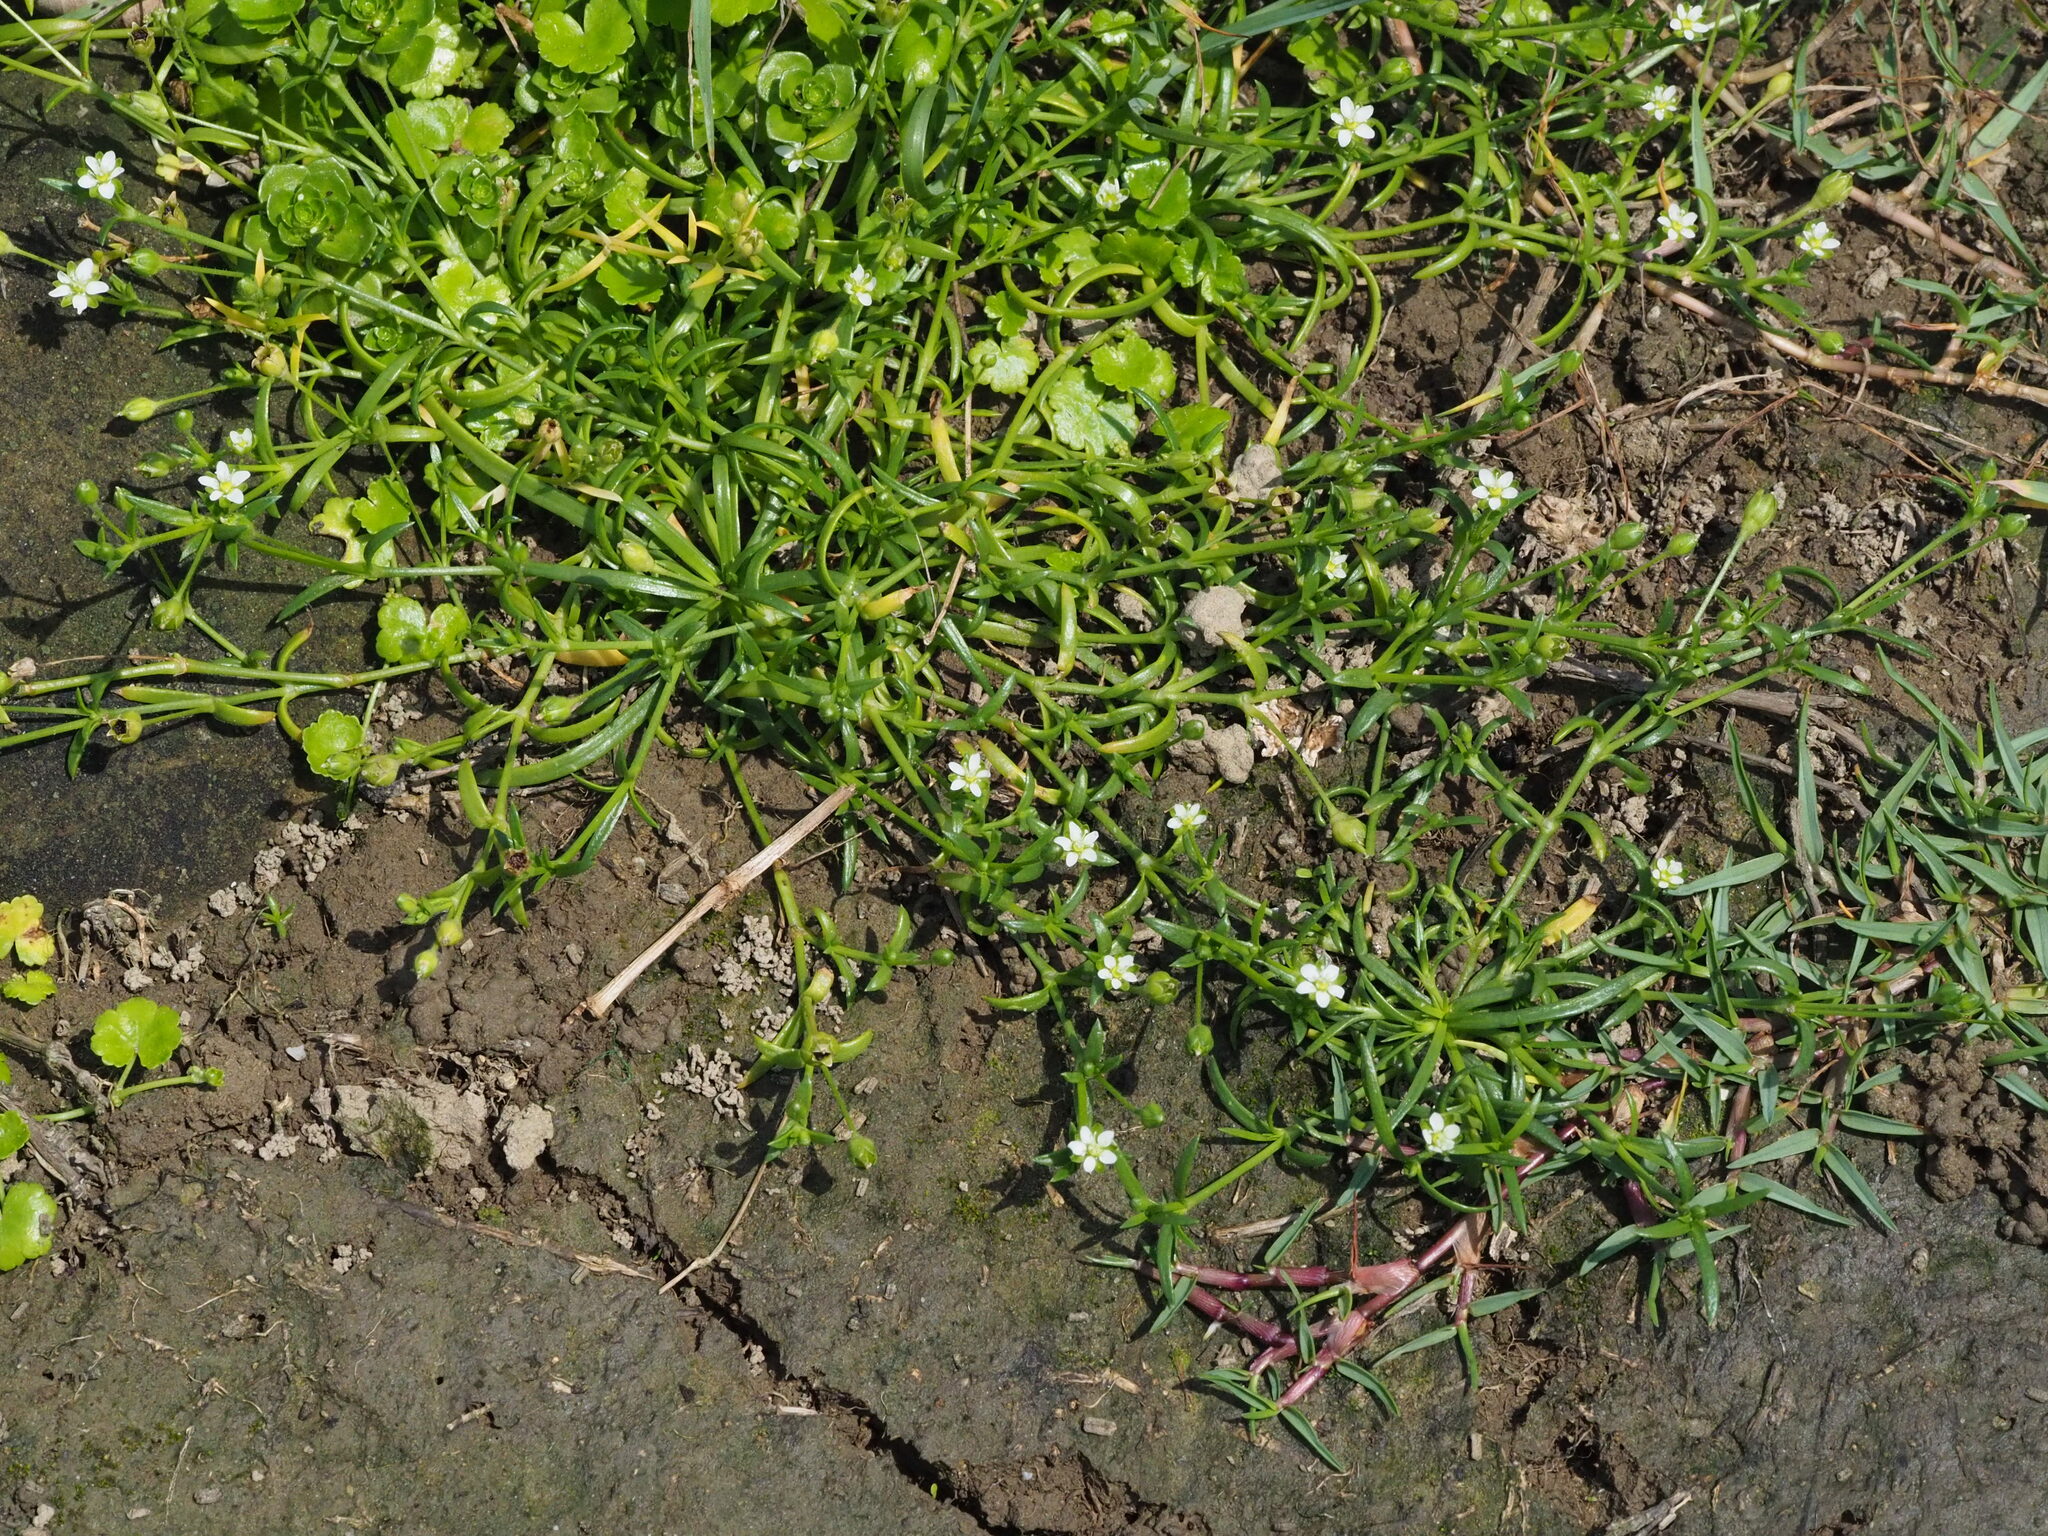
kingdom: Plantae
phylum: Tracheophyta
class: Magnoliopsida
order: Caryophyllales
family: Caryophyllaceae
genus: Sagina
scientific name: Sagina japonica
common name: Japanese pearlwort
